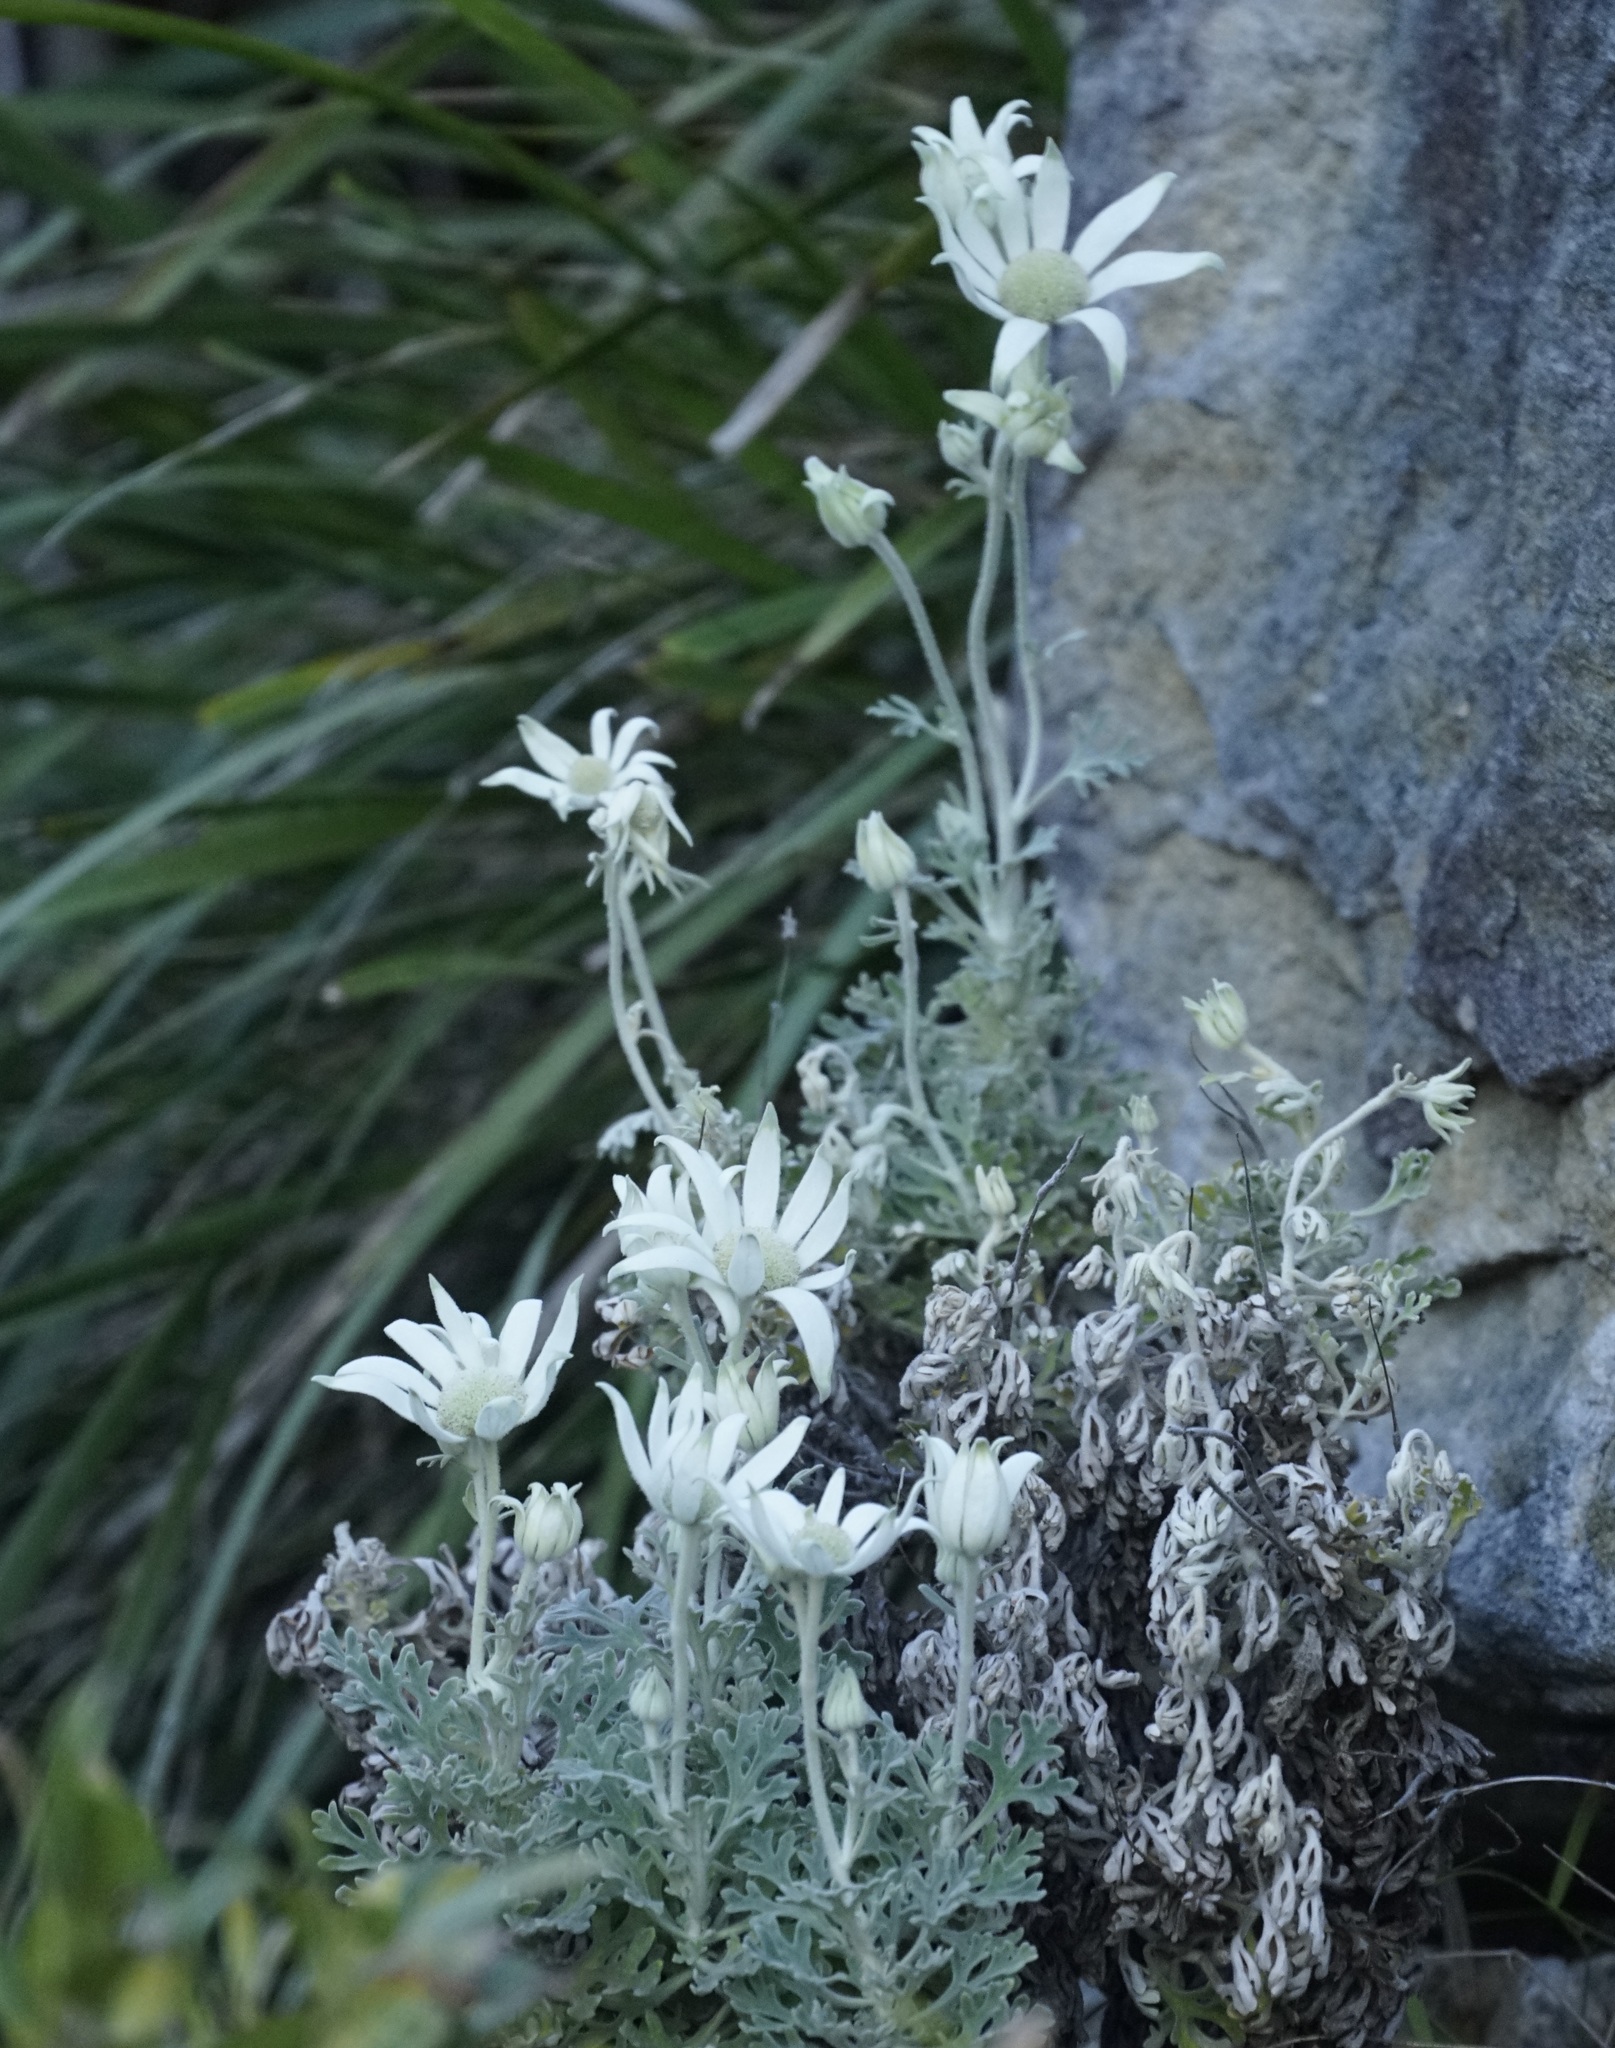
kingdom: Plantae
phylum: Tracheophyta
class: Magnoliopsida
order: Apiales
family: Apiaceae
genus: Actinotus
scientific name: Actinotus helianthi
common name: Flannel-flower
